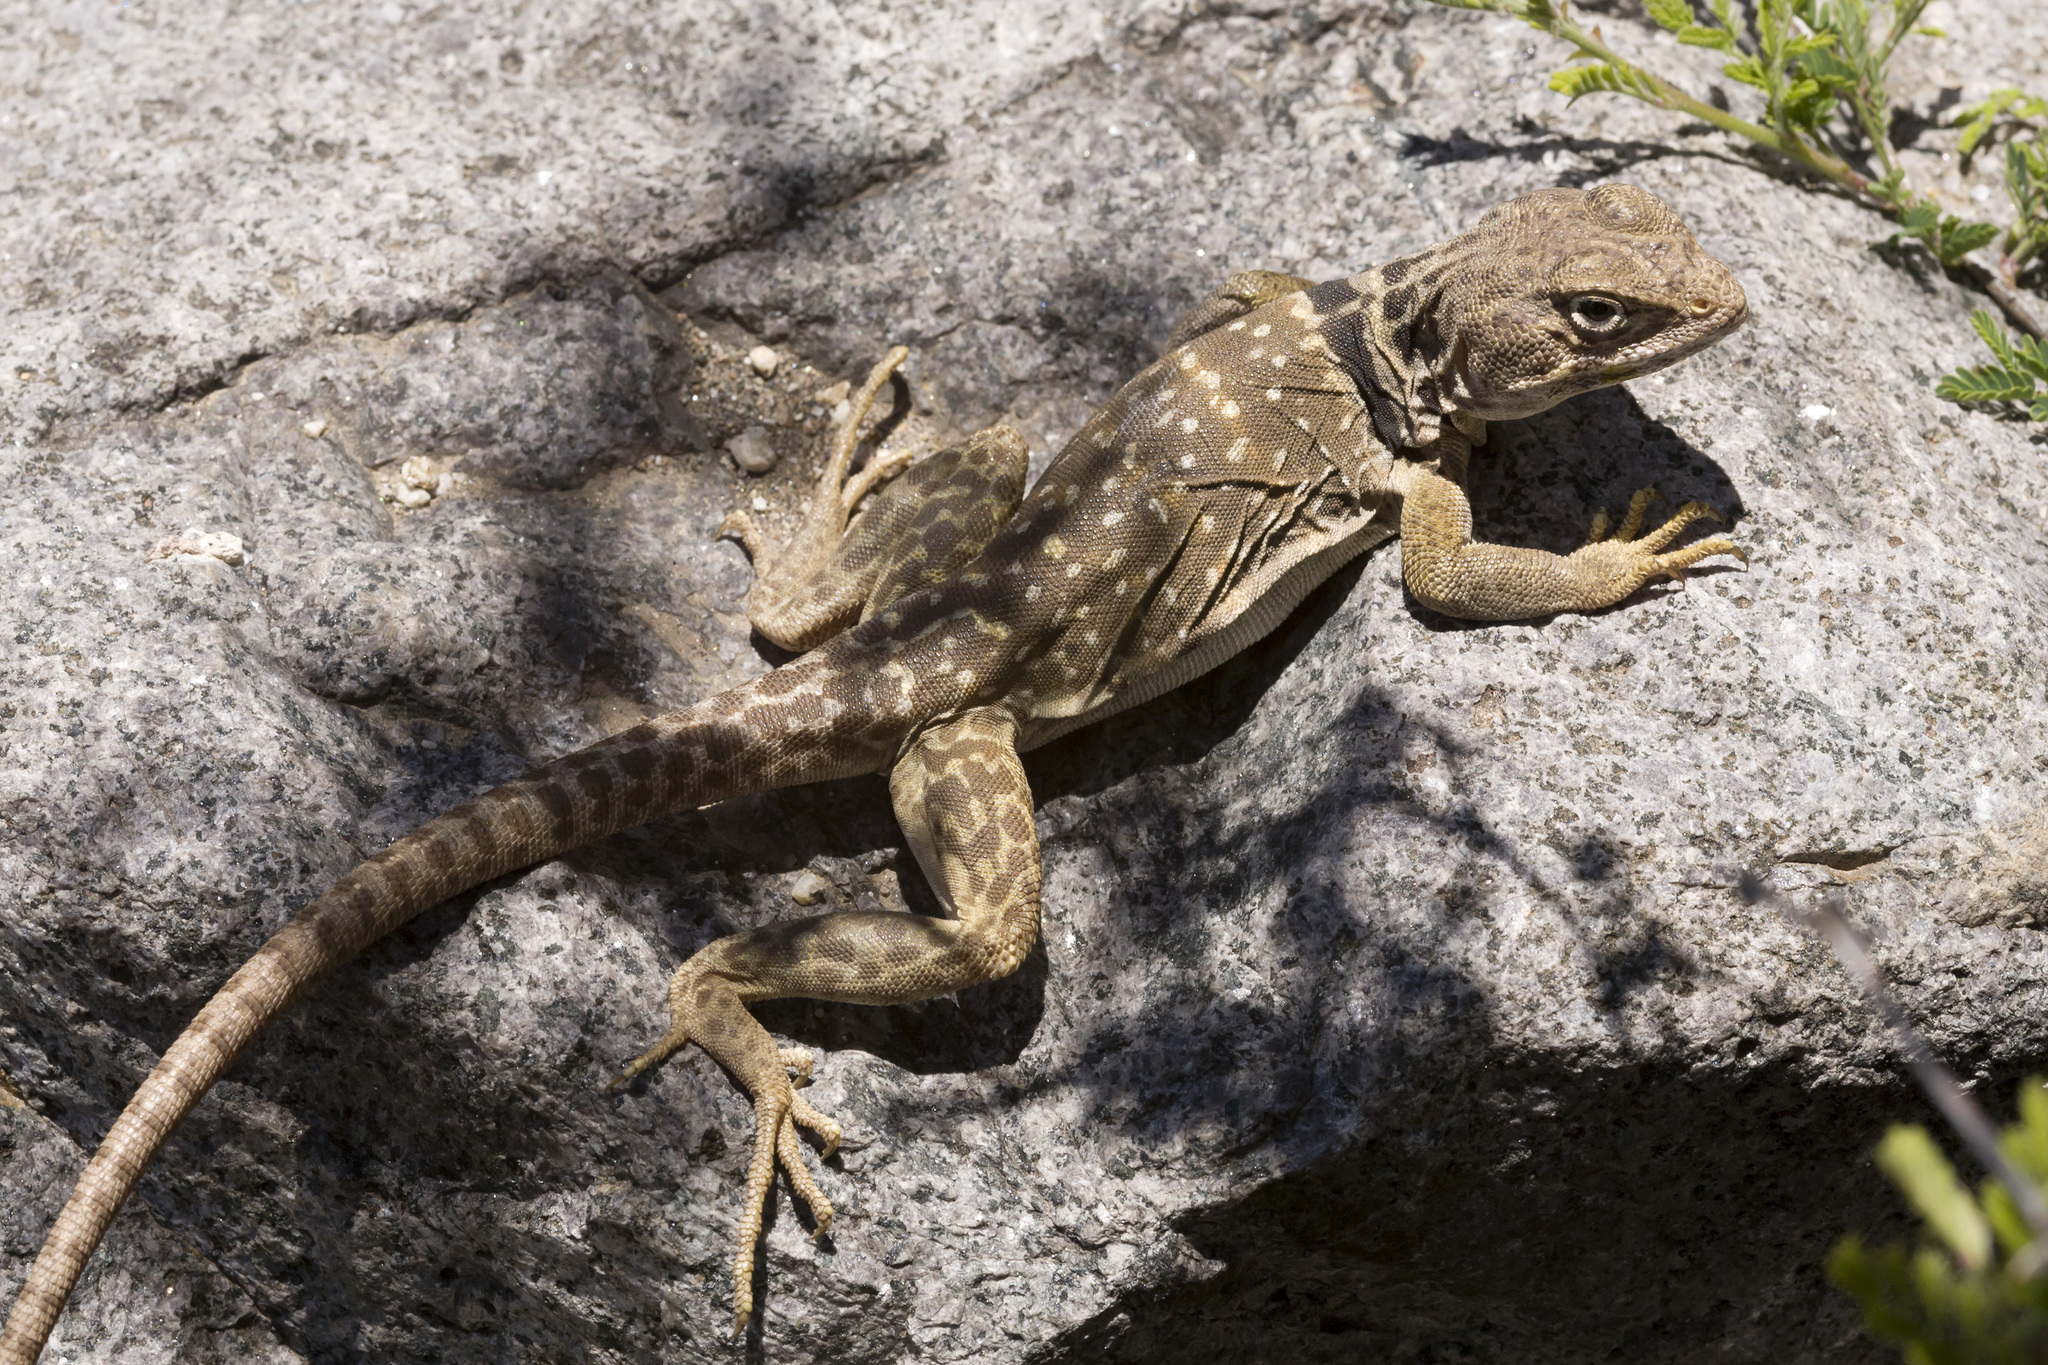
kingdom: Animalia
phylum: Chordata
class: Squamata
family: Crotaphytidae
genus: Crotaphytus
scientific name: Crotaphytus collaris
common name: Collared lizard
